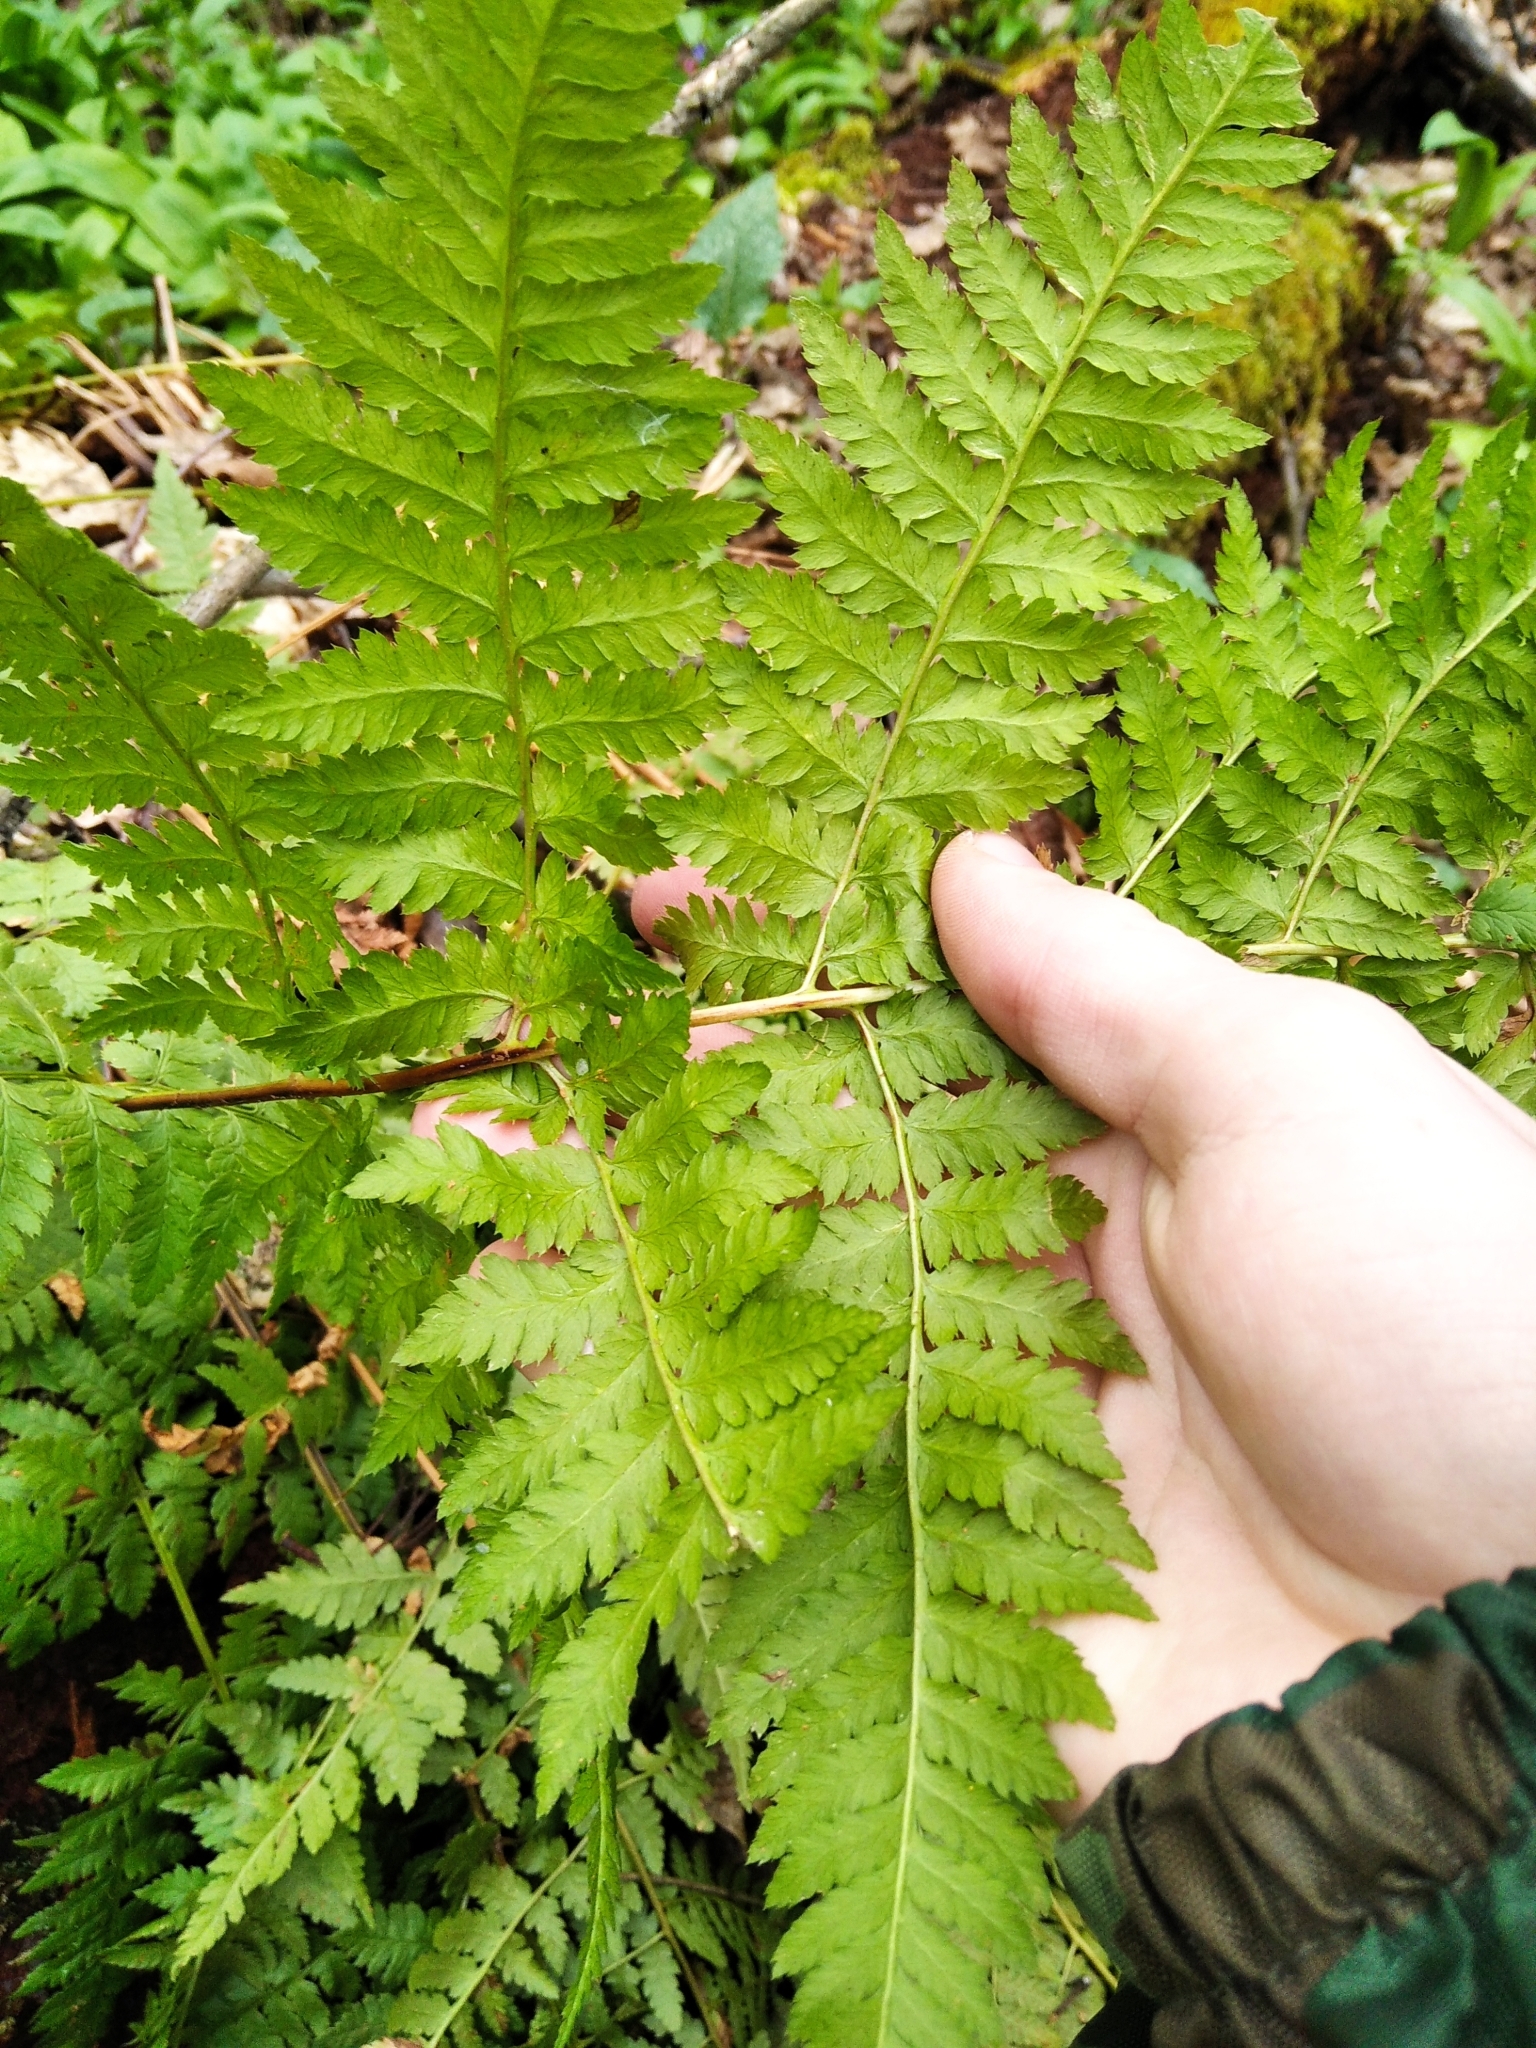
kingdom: Plantae
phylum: Tracheophyta
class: Polypodiopsida
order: Polypodiales
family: Dryopteridaceae
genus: Dryopteris
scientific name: Dryopteris carthusiana
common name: Narrow buckler-fern
